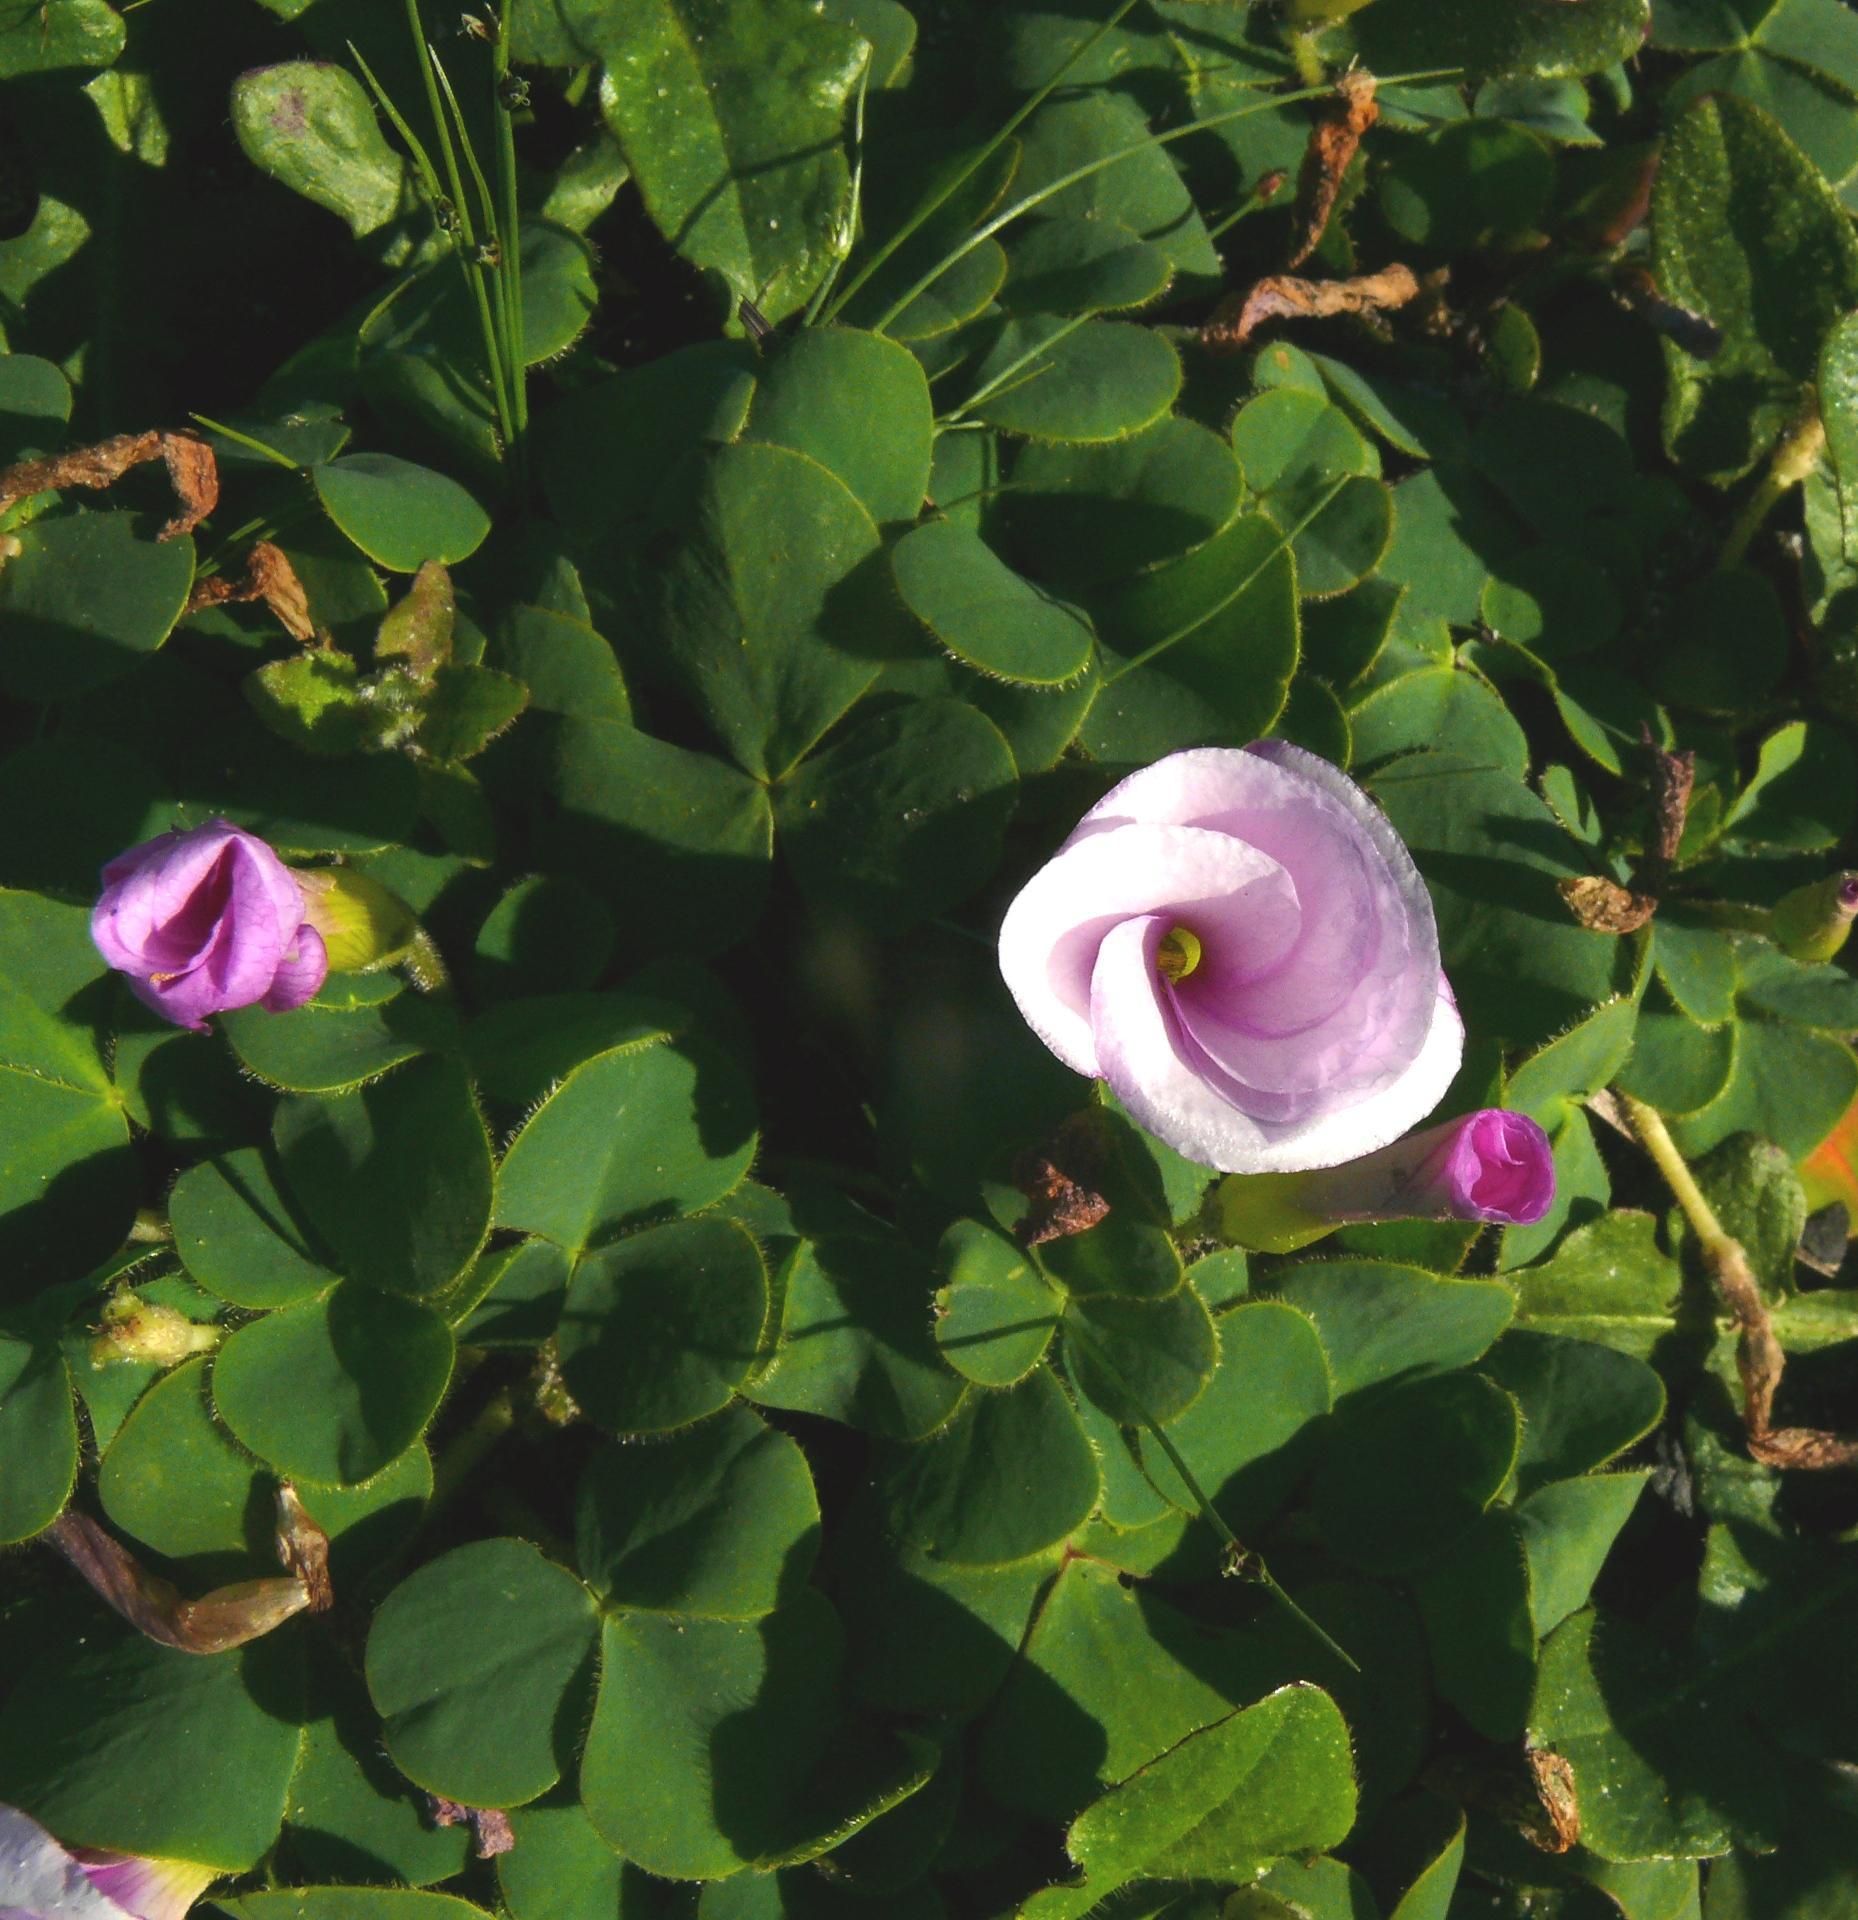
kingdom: Plantae
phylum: Tracheophyta
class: Magnoliopsida
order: Oxalidales
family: Oxalidaceae
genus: Oxalis
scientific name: Oxalis purpurea
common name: Purple woodsorrel
